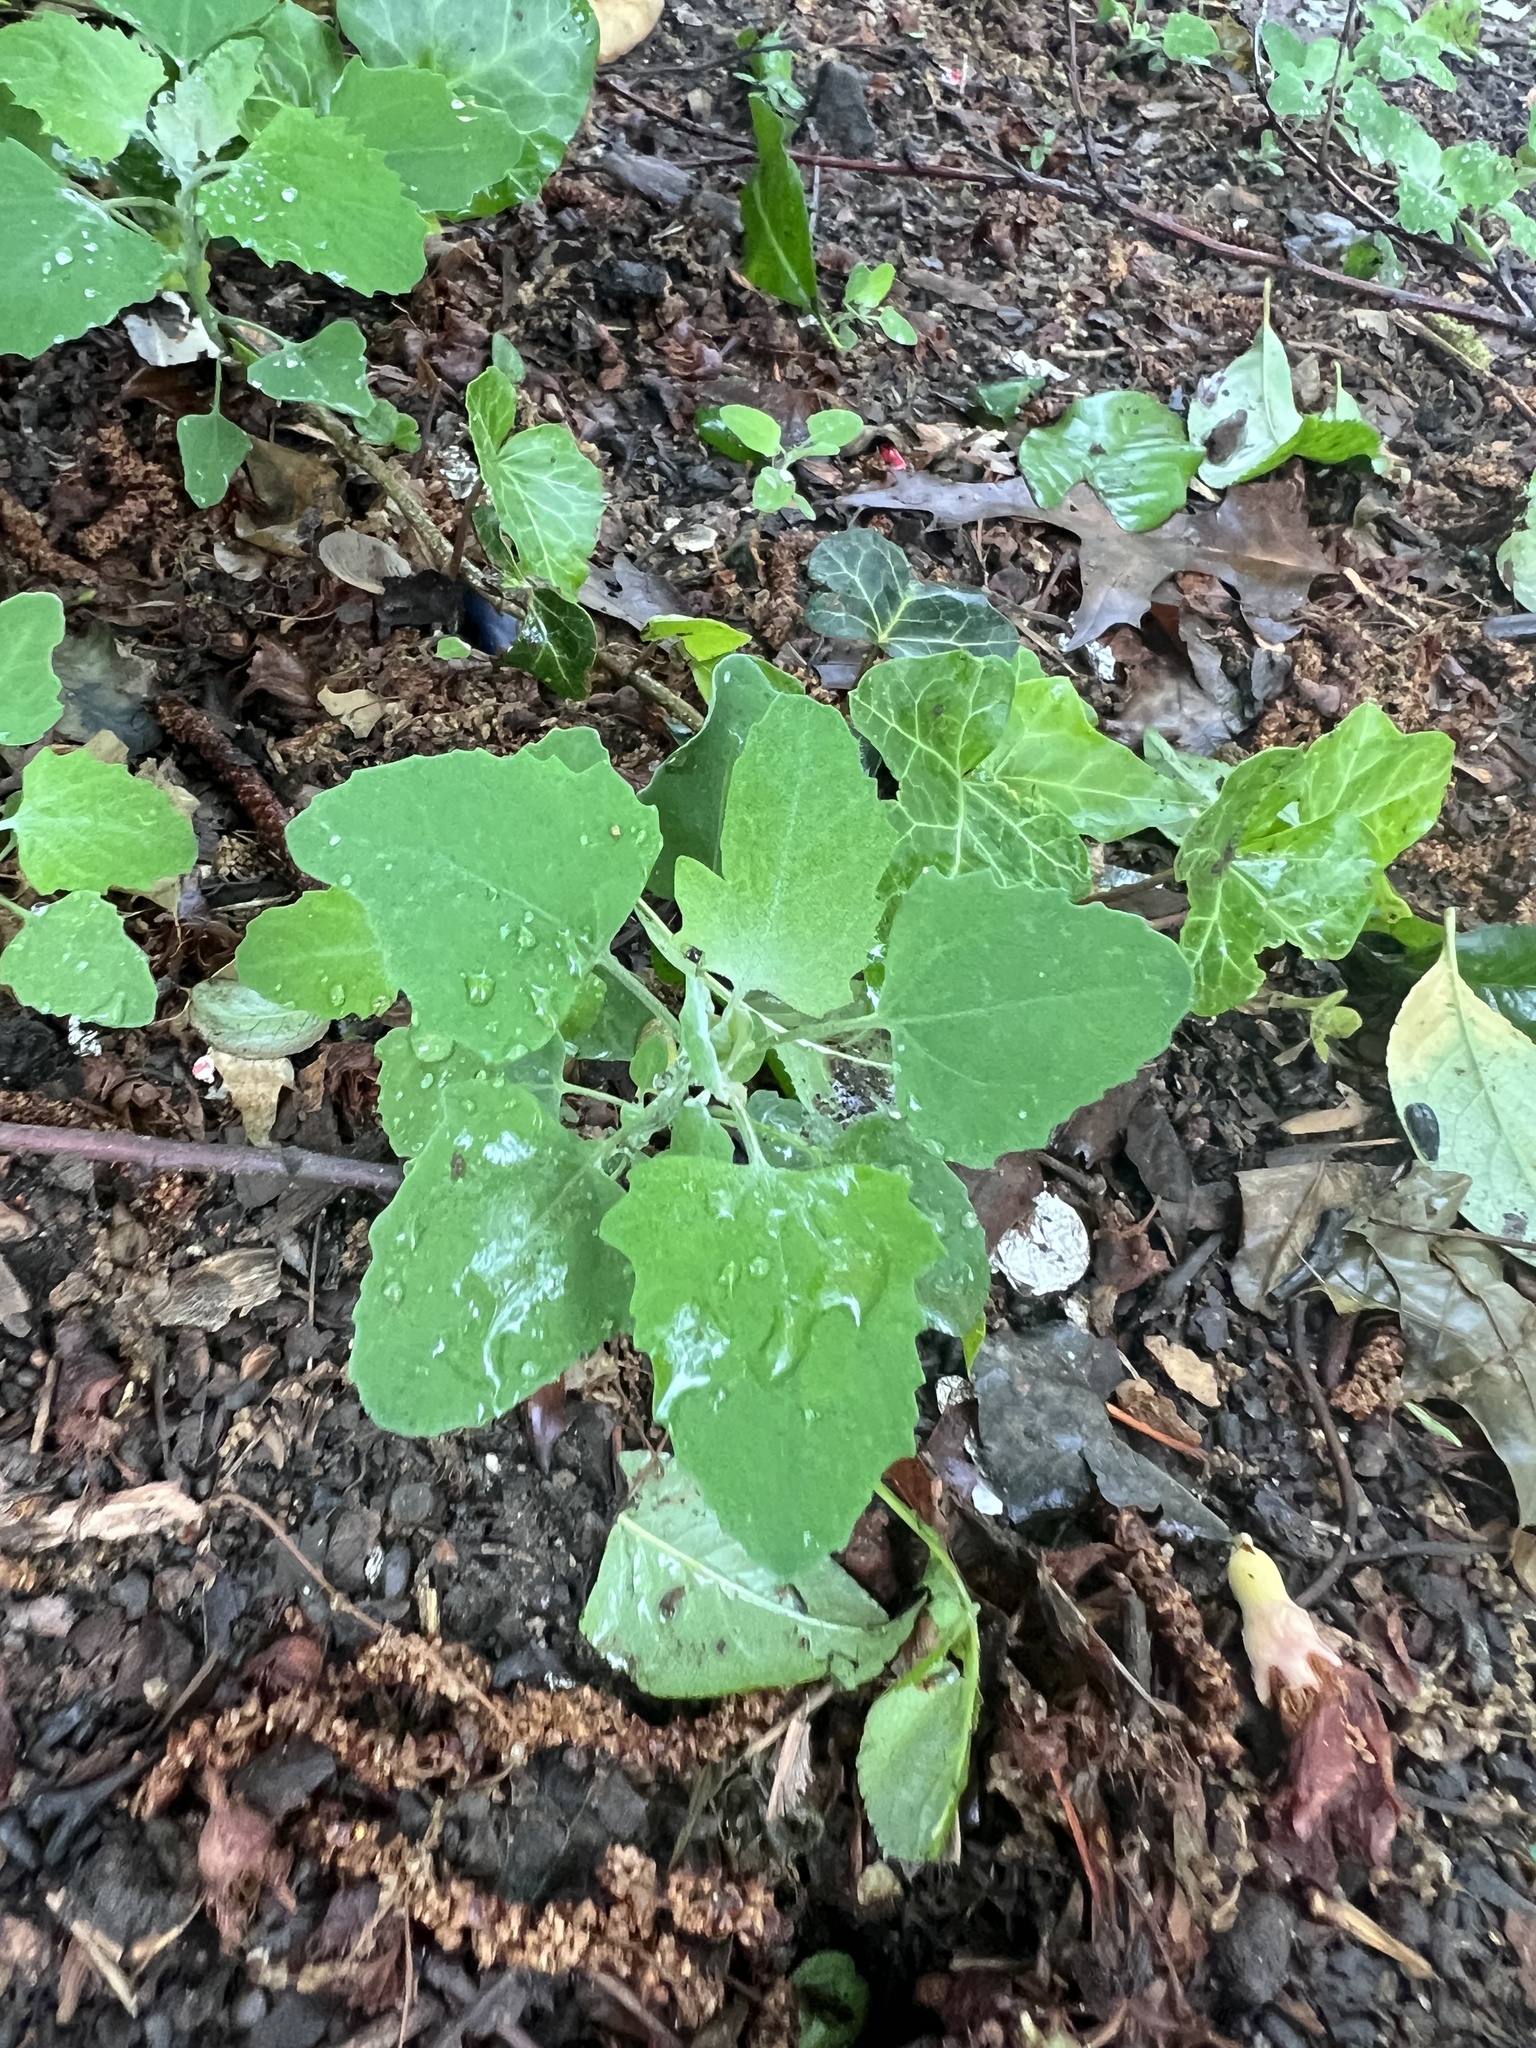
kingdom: Plantae
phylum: Tracheophyta
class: Magnoliopsida
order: Caryophyllales
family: Amaranthaceae
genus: Chenopodium
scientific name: Chenopodium album
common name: Fat-hen
